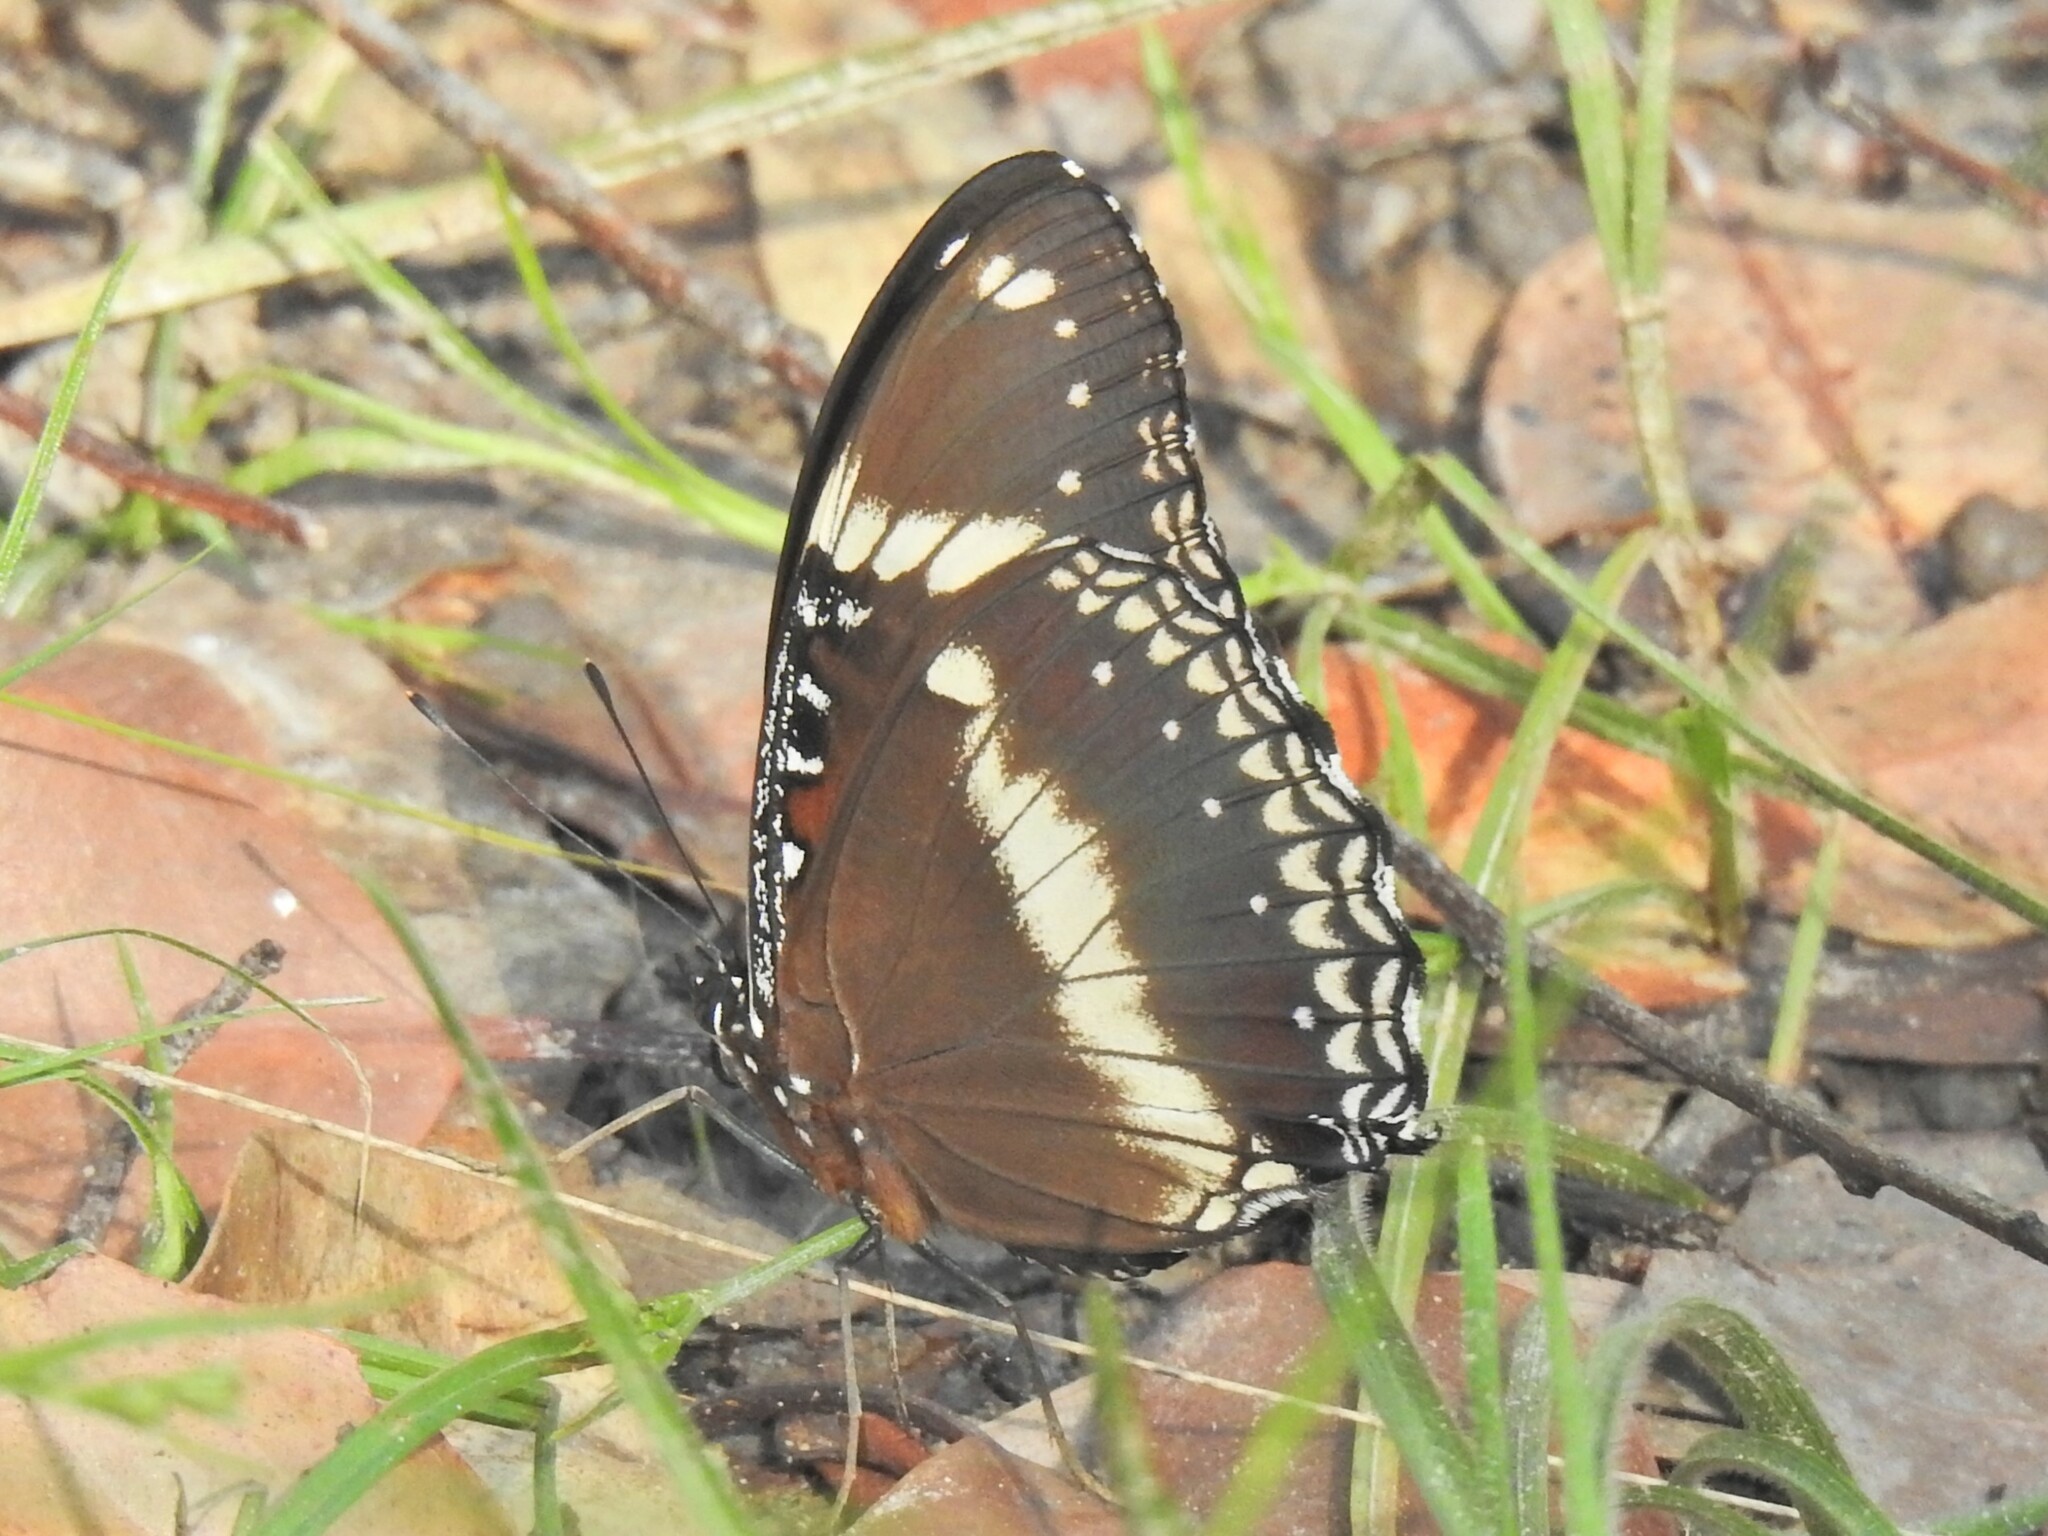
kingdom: Animalia
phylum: Arthropoda
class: Insecta
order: Lepidoptera
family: Nymphalidae
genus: Hypolimnas
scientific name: Hypolimnas bolina
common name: Great eggfly
